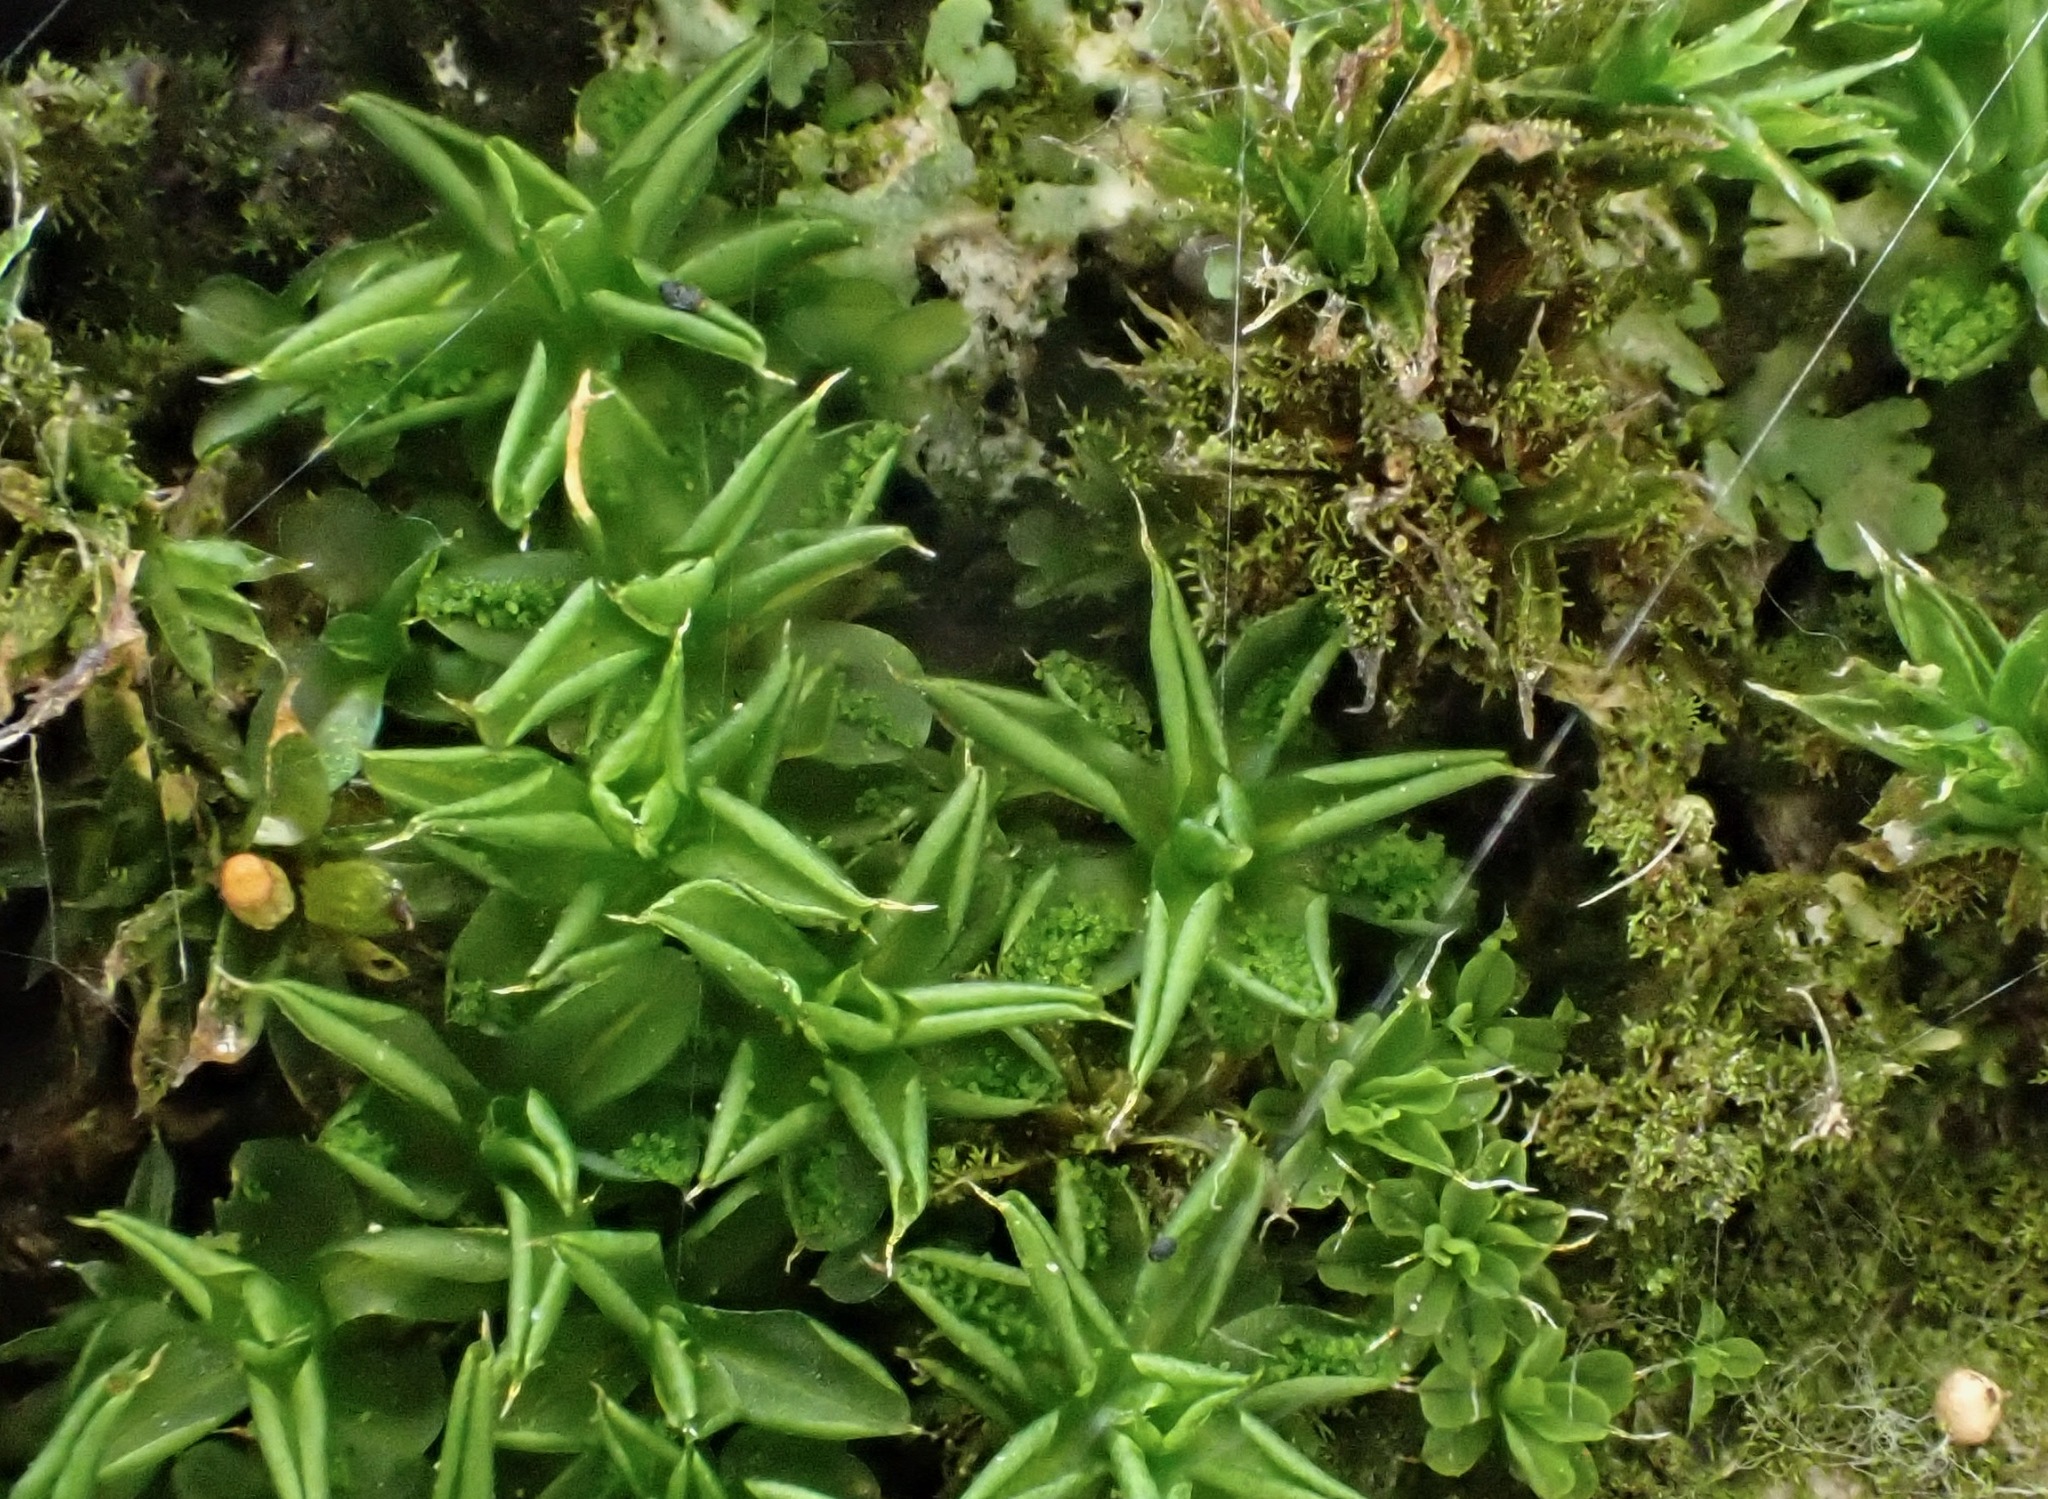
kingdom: Plantae
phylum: Bryophyta
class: Bryopsida
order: Pottiales
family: Pottiaceae
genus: Syntrichia
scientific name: Syntrichia papillosa
